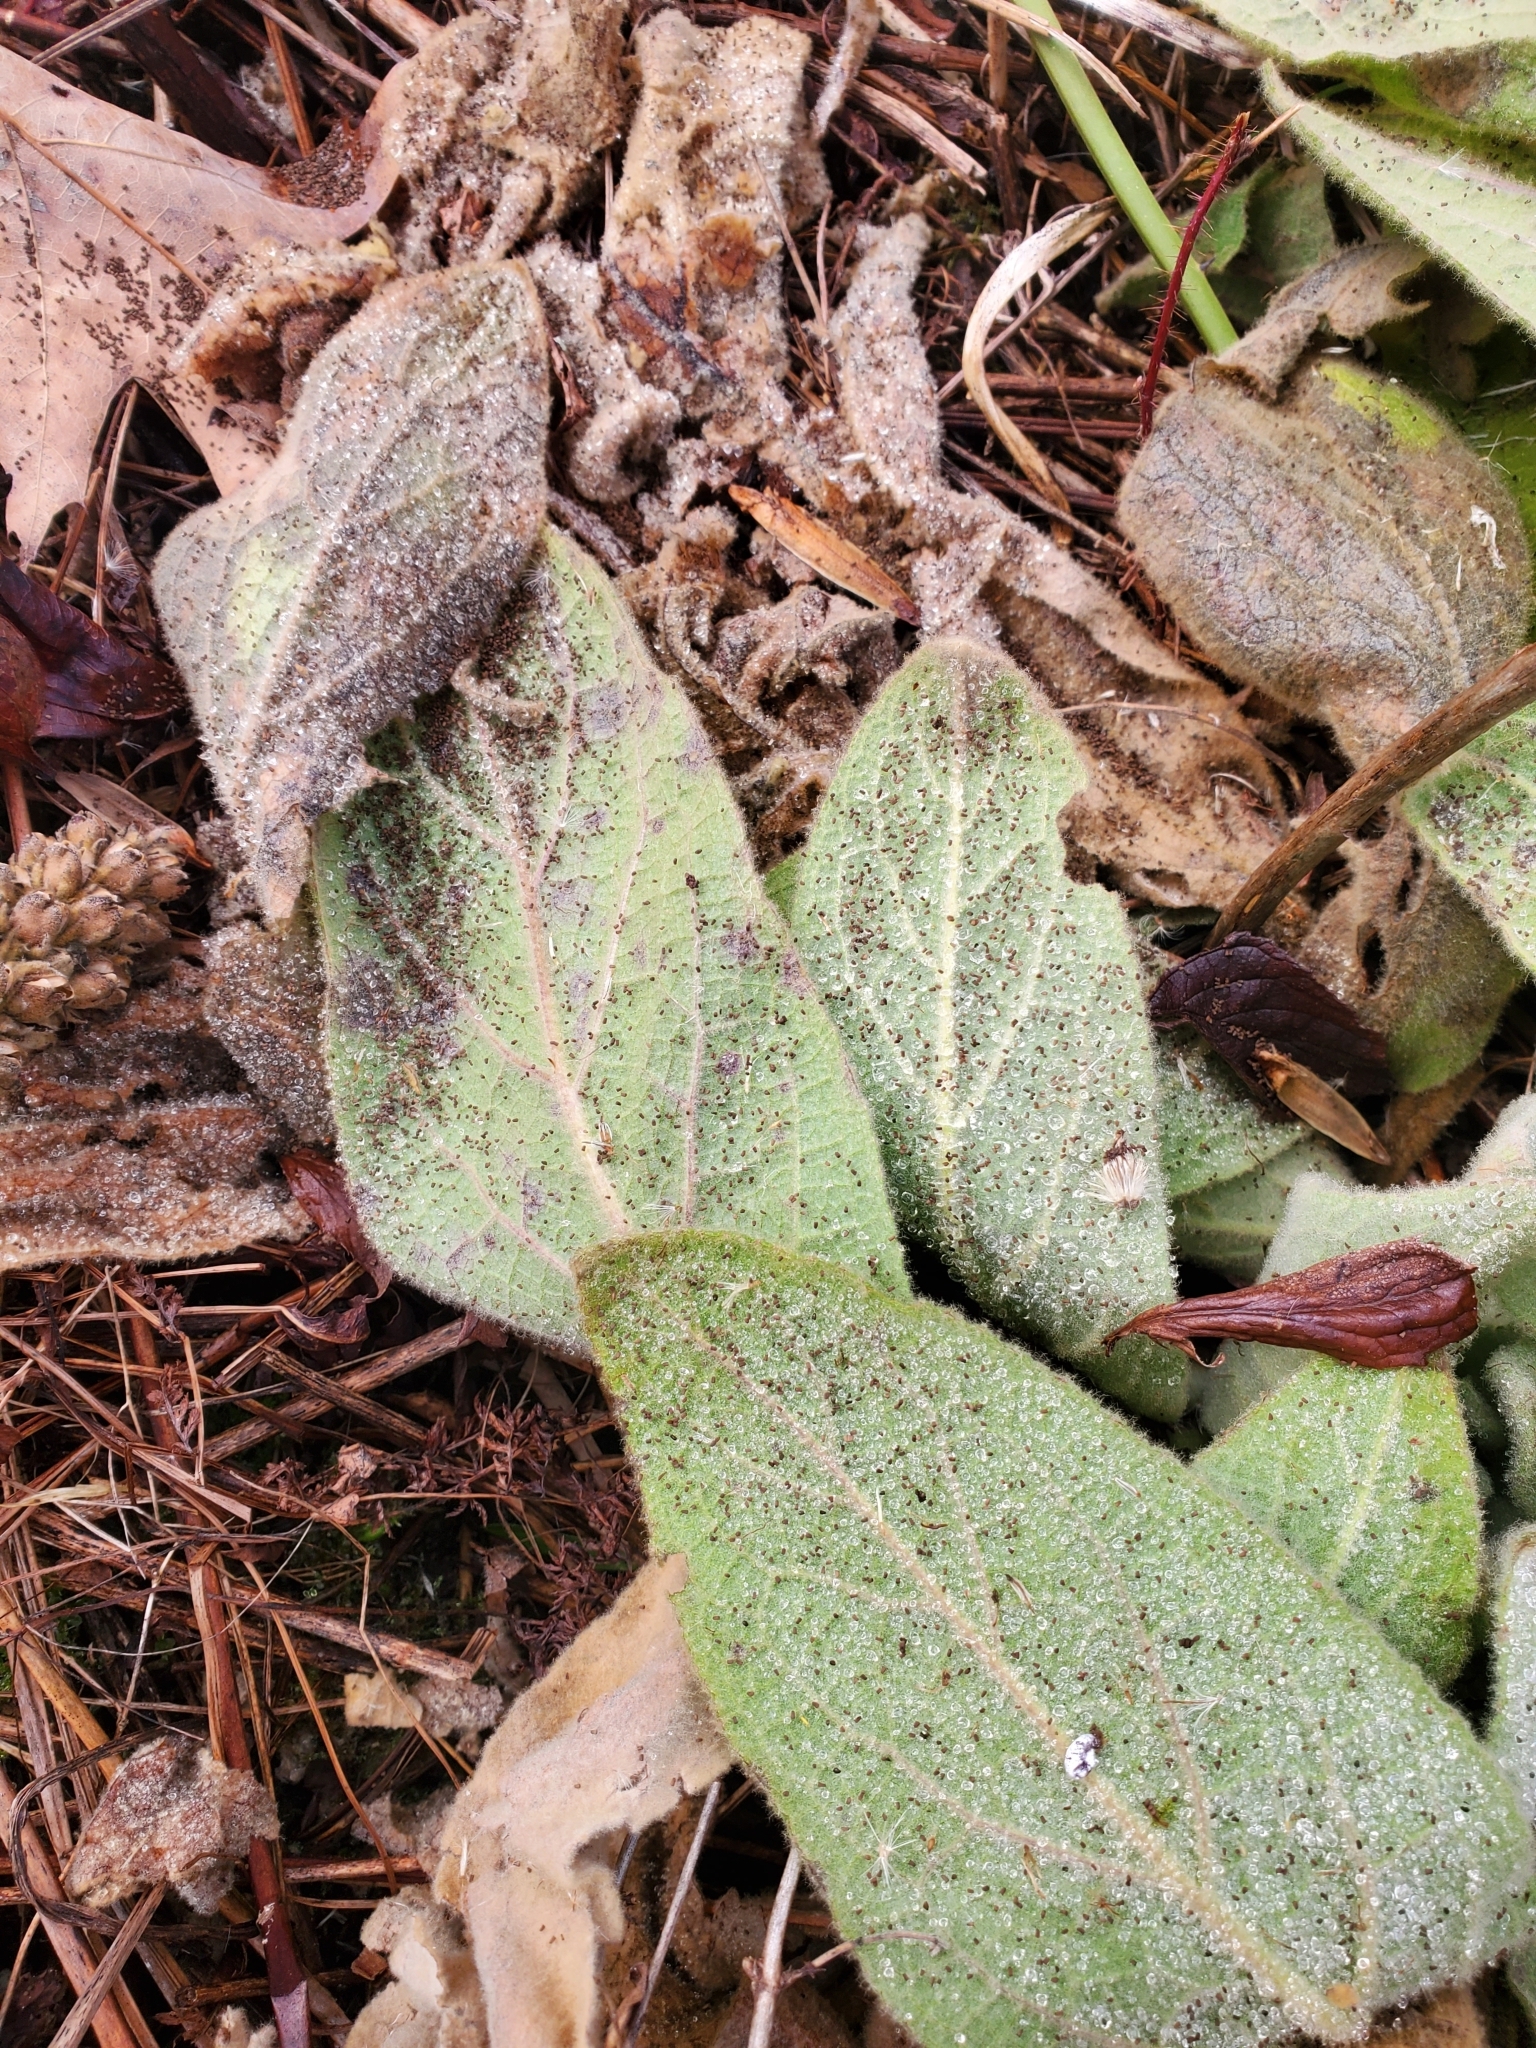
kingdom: Plantae
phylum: Tracheophyta
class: Magnoliopsida
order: Lamiales
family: Scrophulariaceae
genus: Verbascum
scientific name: Verbascum thapsus
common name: Common mullein
